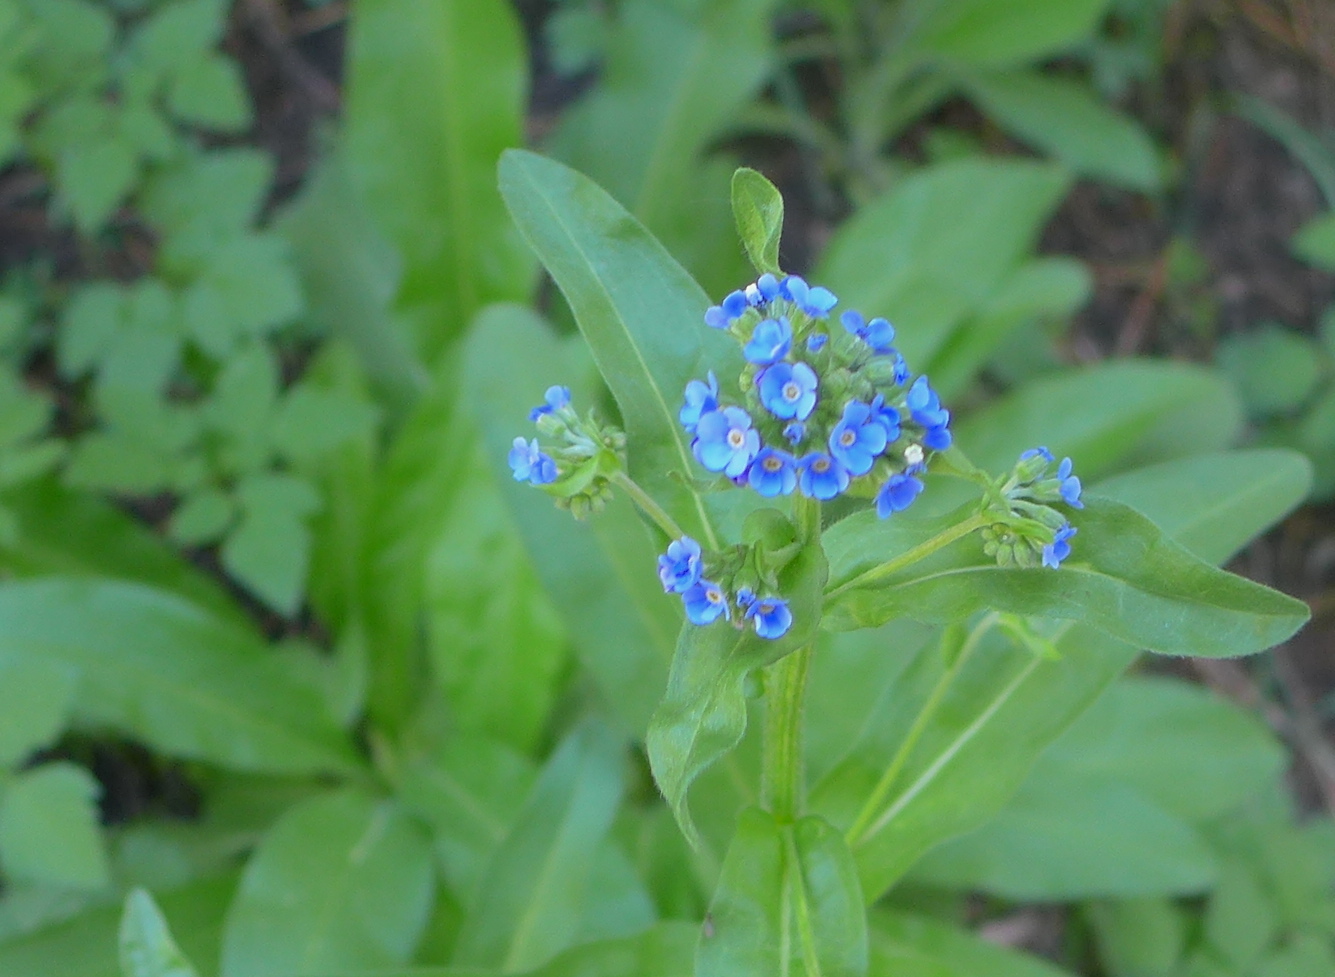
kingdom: Plantae
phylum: Tracheophyta
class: Magnoliopsida
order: Boraginales
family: Boraginaceae
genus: Hackelia
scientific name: Hackelia nervosa
